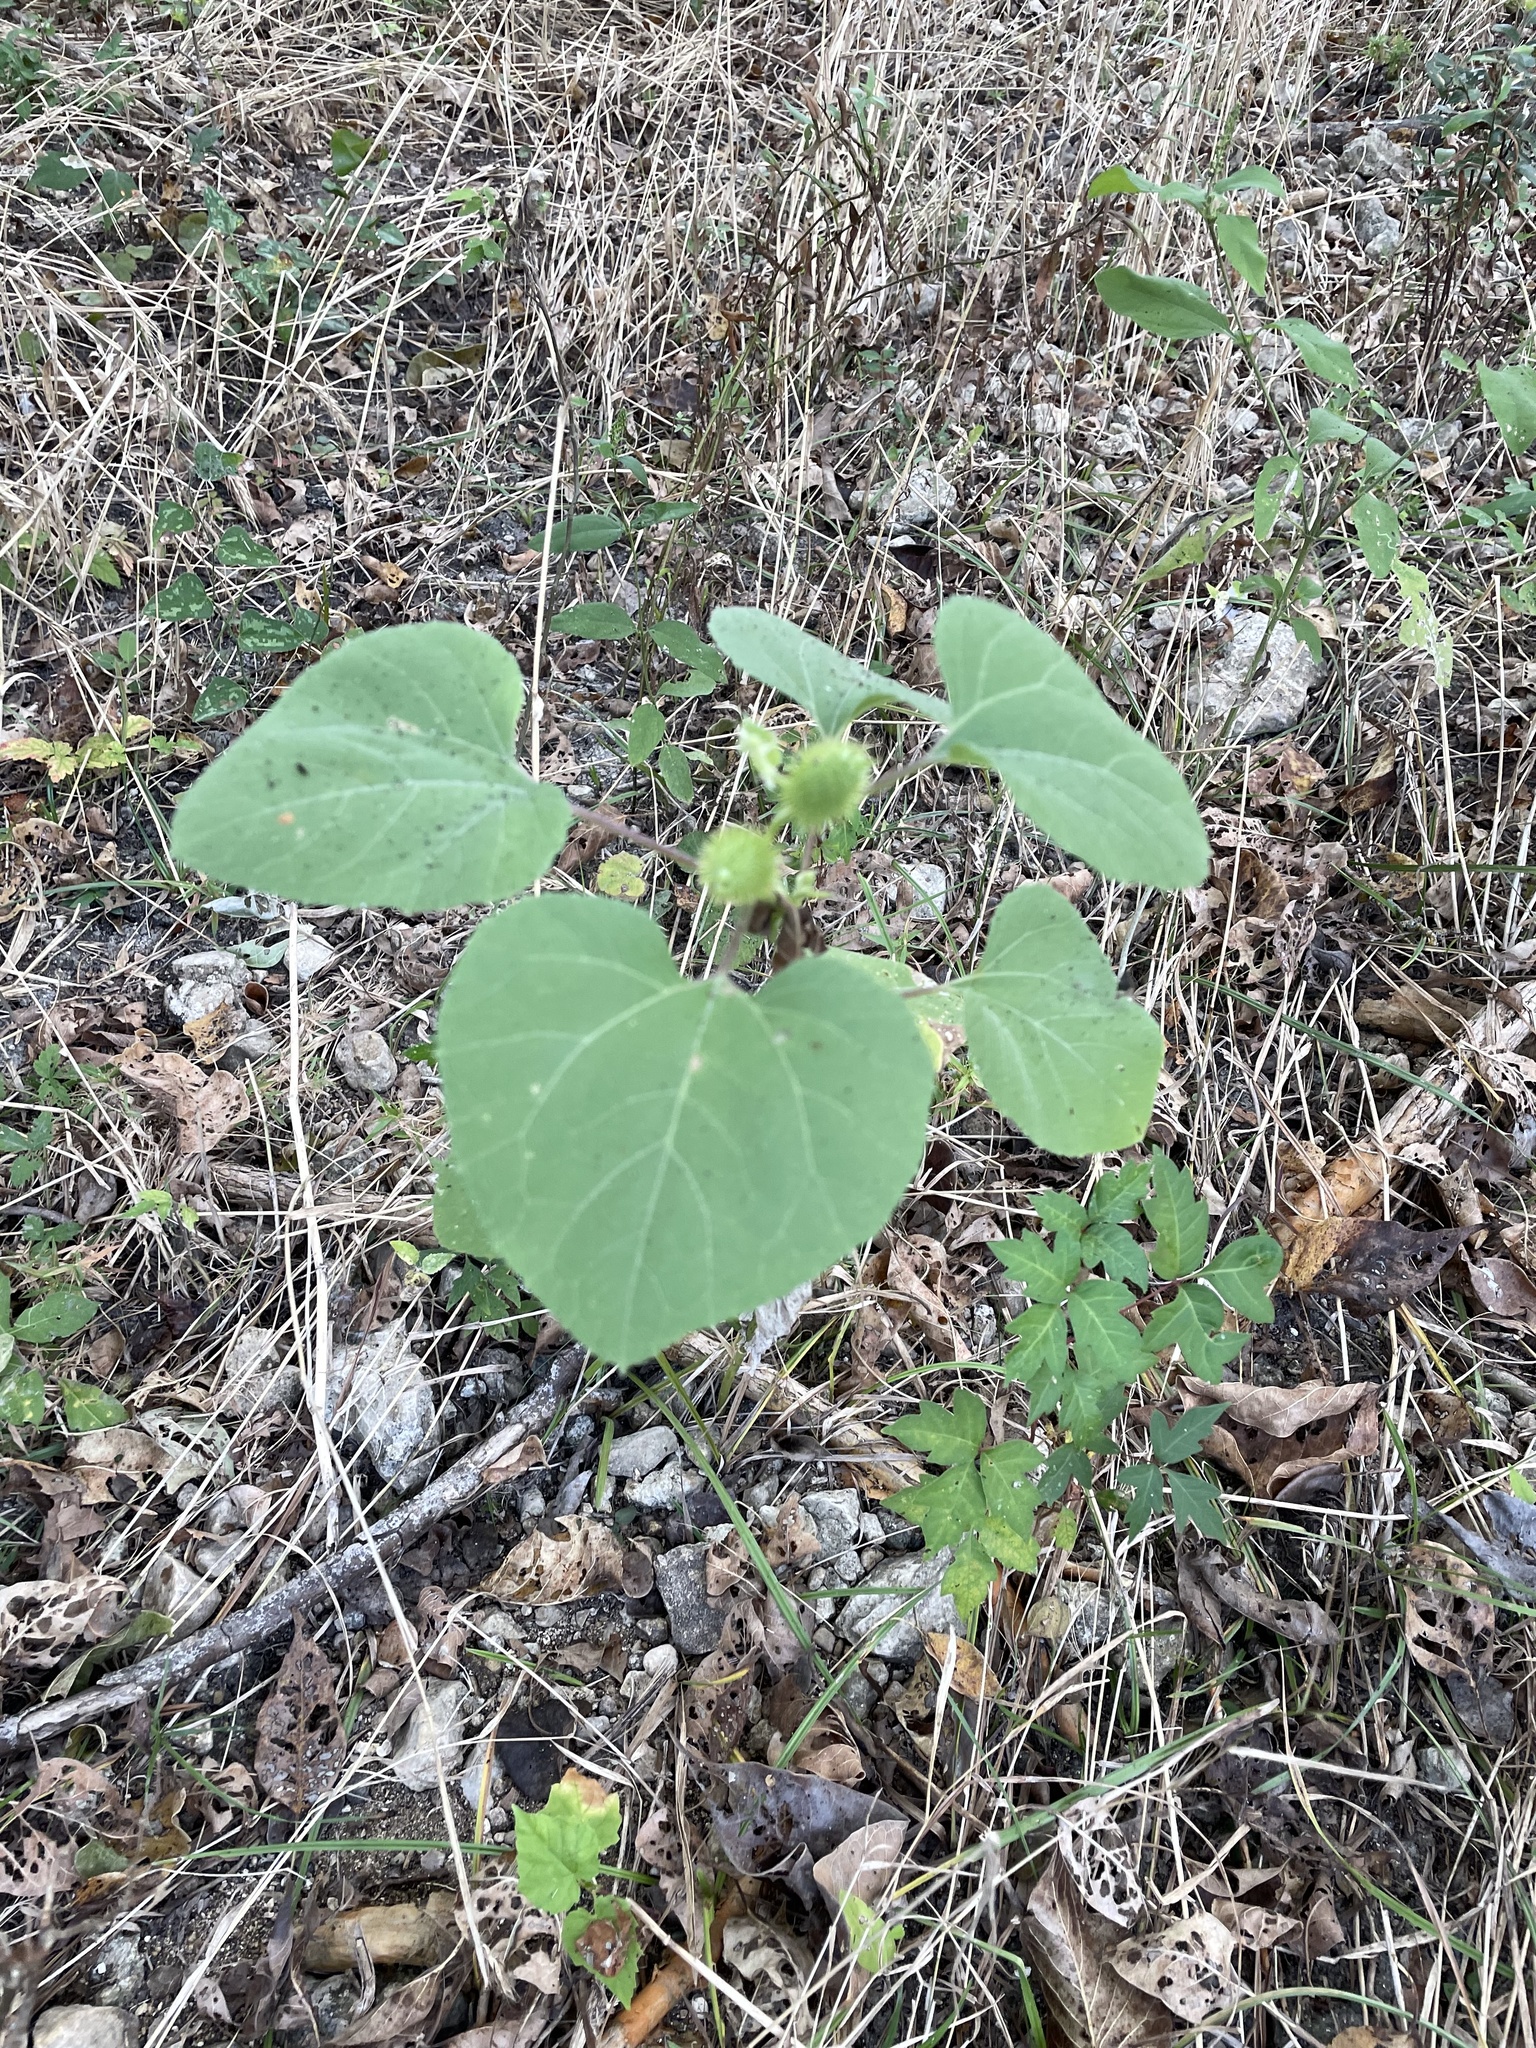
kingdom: Plantae
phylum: Tracheophyta
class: Magnoliopsida
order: Asterales
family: Asteraceae
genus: Xanthium
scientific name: Xanthium strumarium
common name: Rough cocklebur
